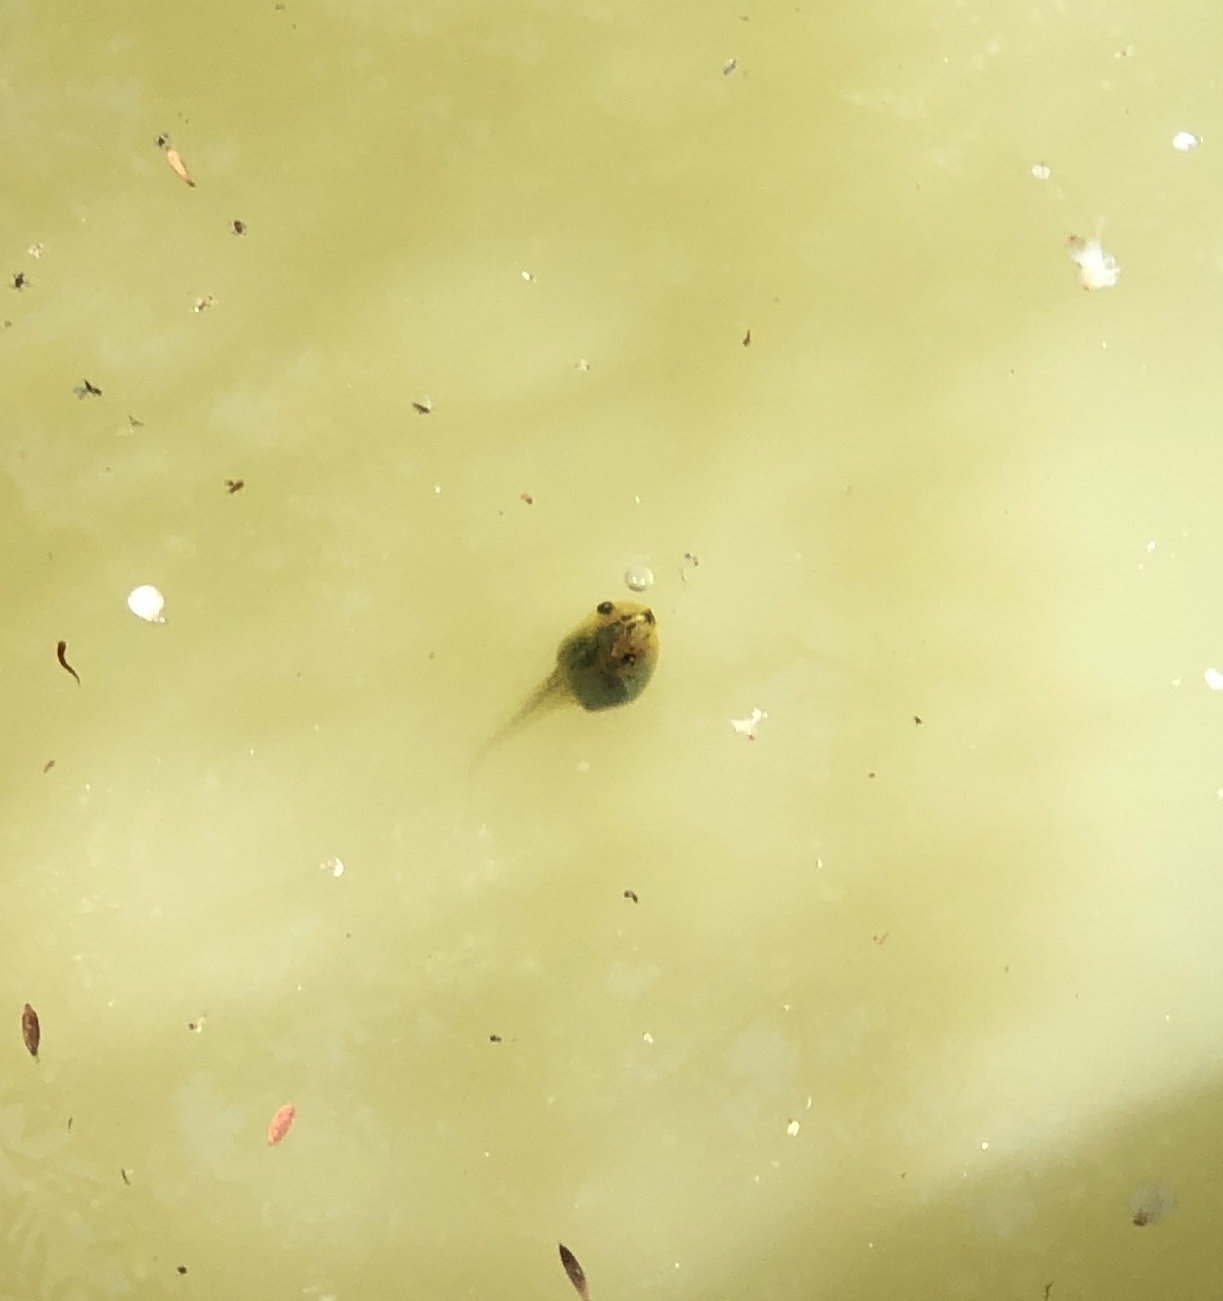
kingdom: Animalia
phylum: Chordata
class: Amphibia
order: Anura
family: Pelodryadidae
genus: Ranoidea
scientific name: Ranoidea raniformis
